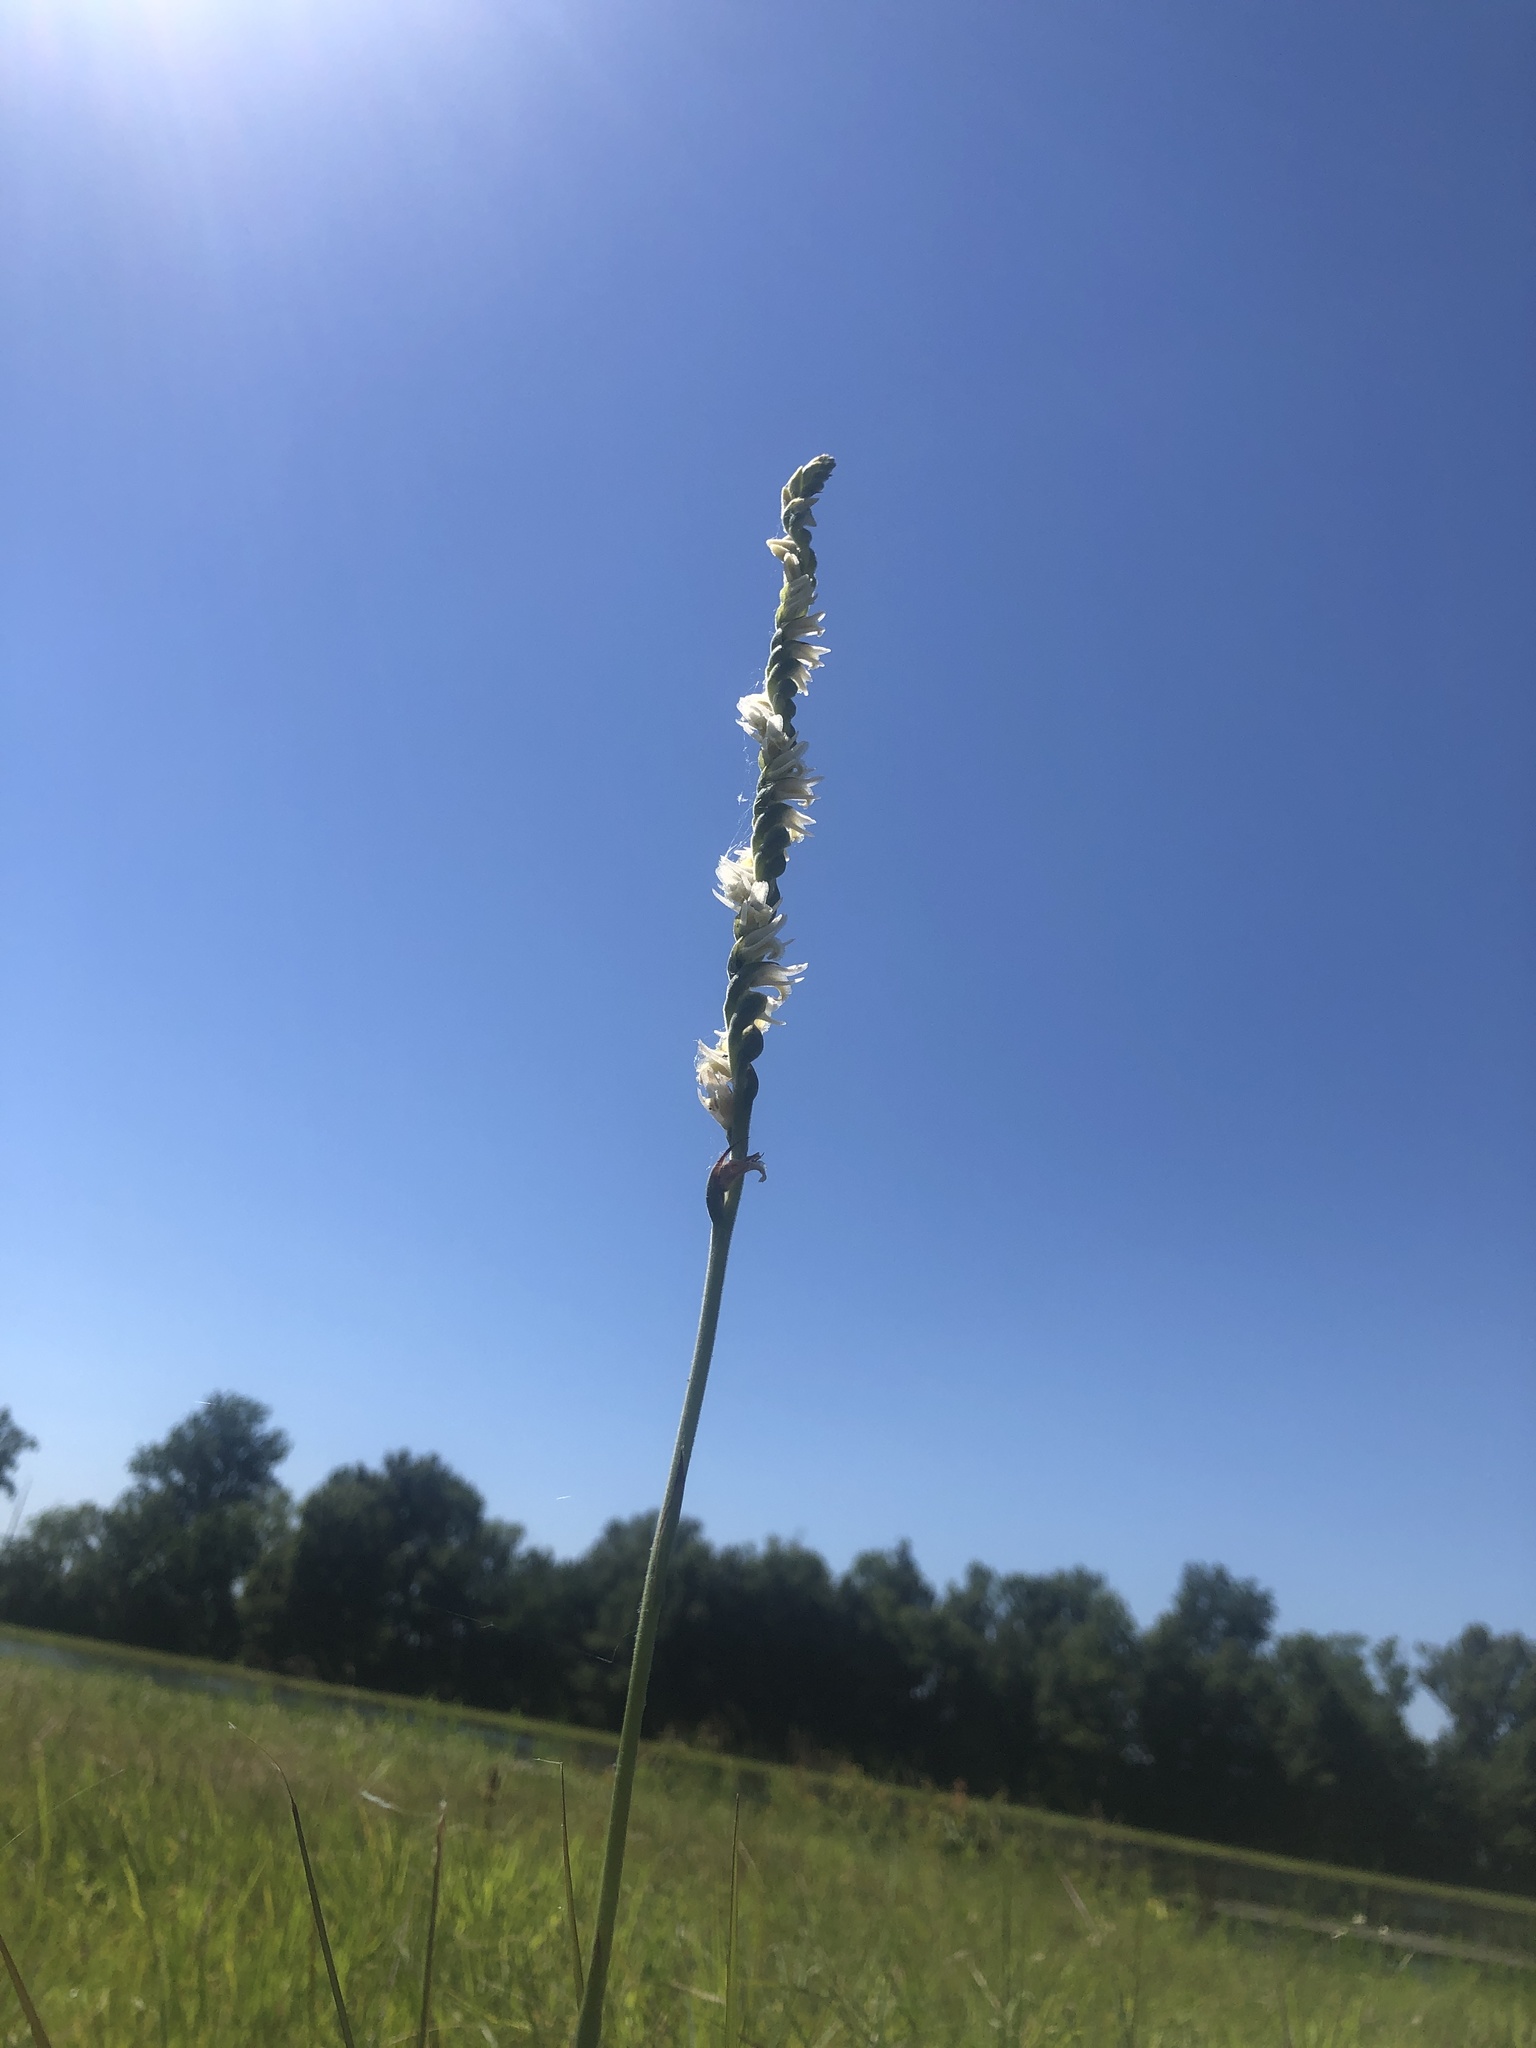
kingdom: Plantae
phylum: Tracheophyta
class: Liliopsida
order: Asparagales
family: Orchidaceae
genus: Spiranthes
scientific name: Spiranthes vernalis
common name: Spring ladies'-tresses
